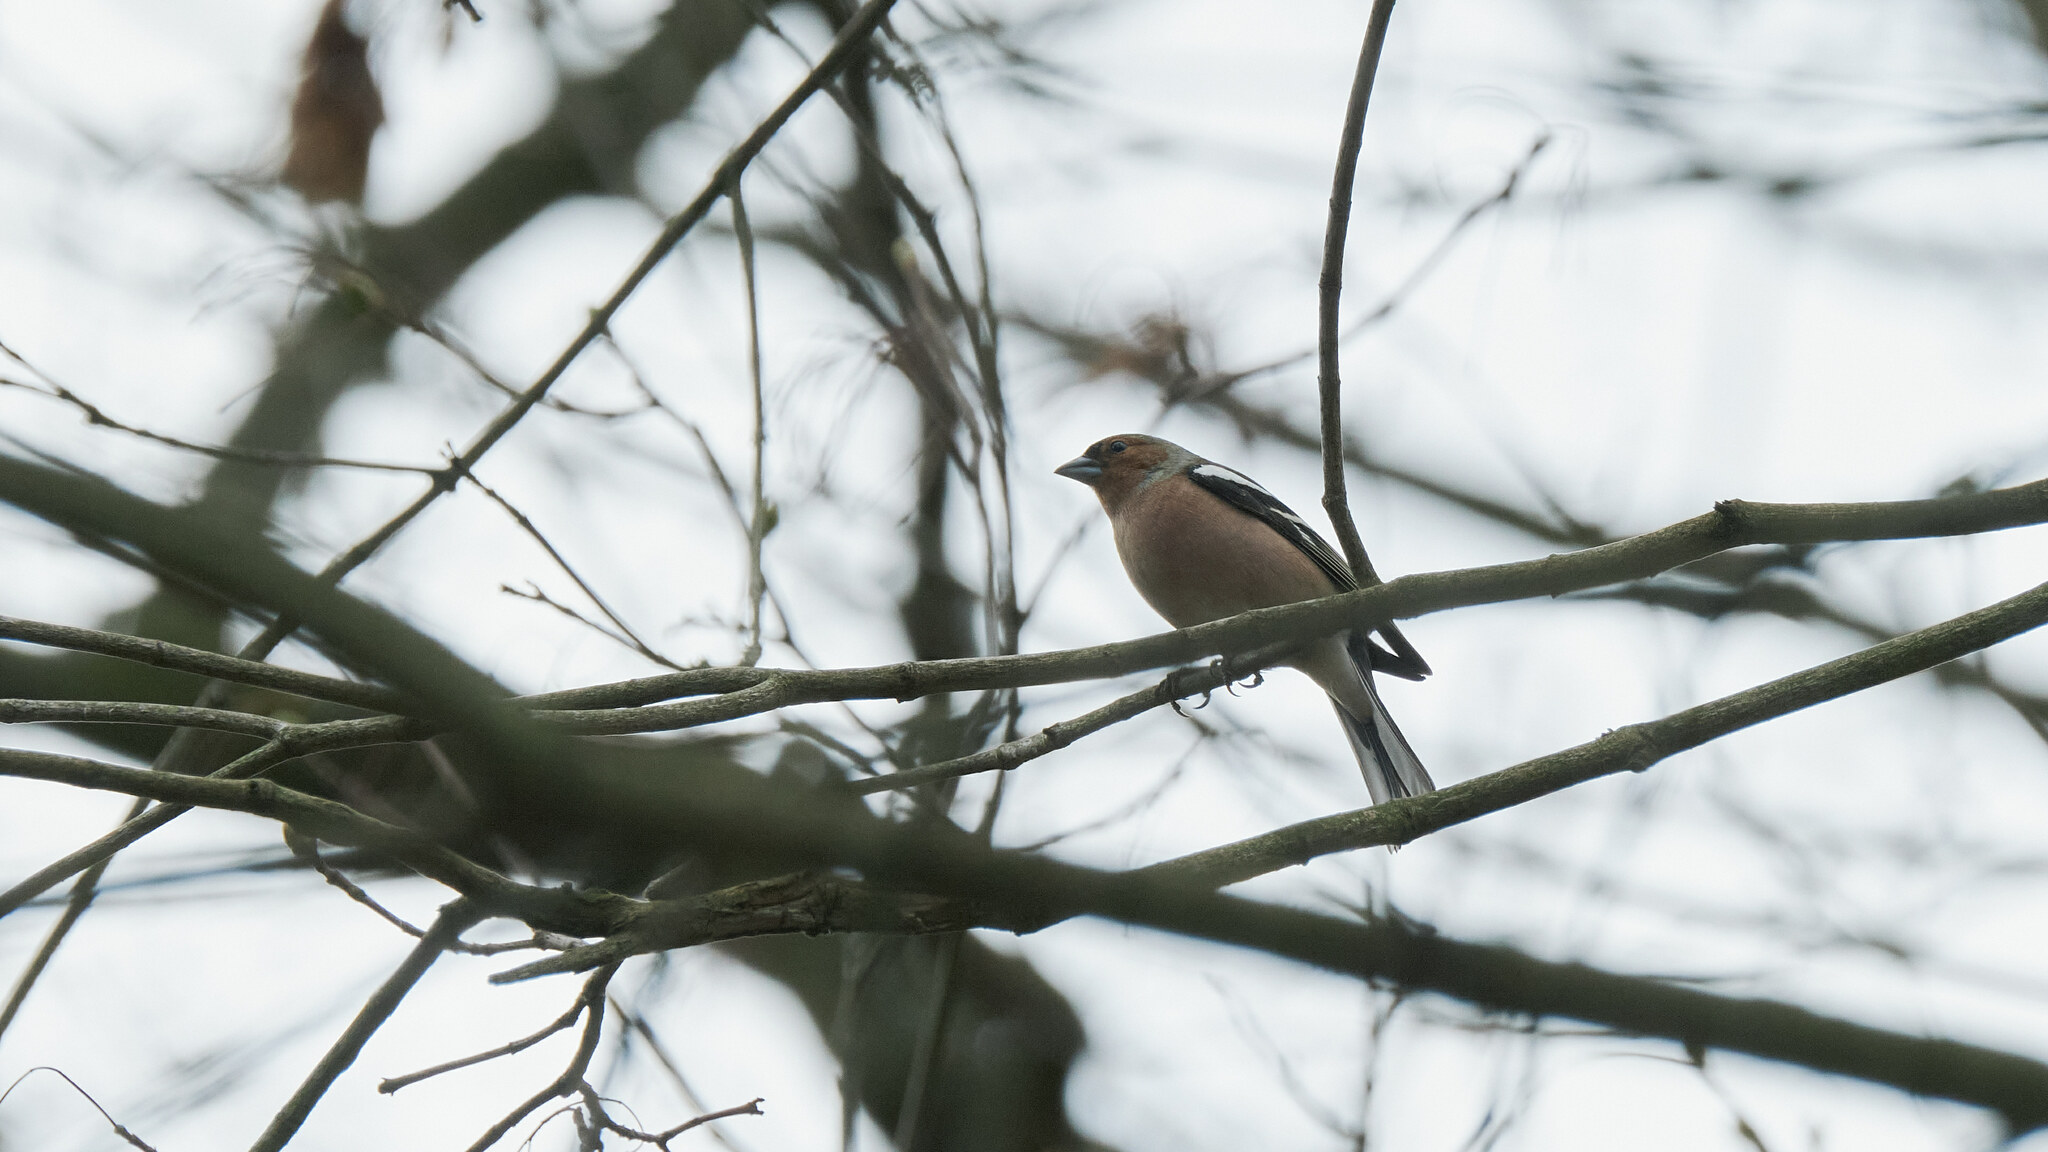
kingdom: Animalia
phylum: Chordata
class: Aves
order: Passeriformes
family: Fringillidae
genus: Fringilla
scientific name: Fringilla coelebs
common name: Common chaffinch
